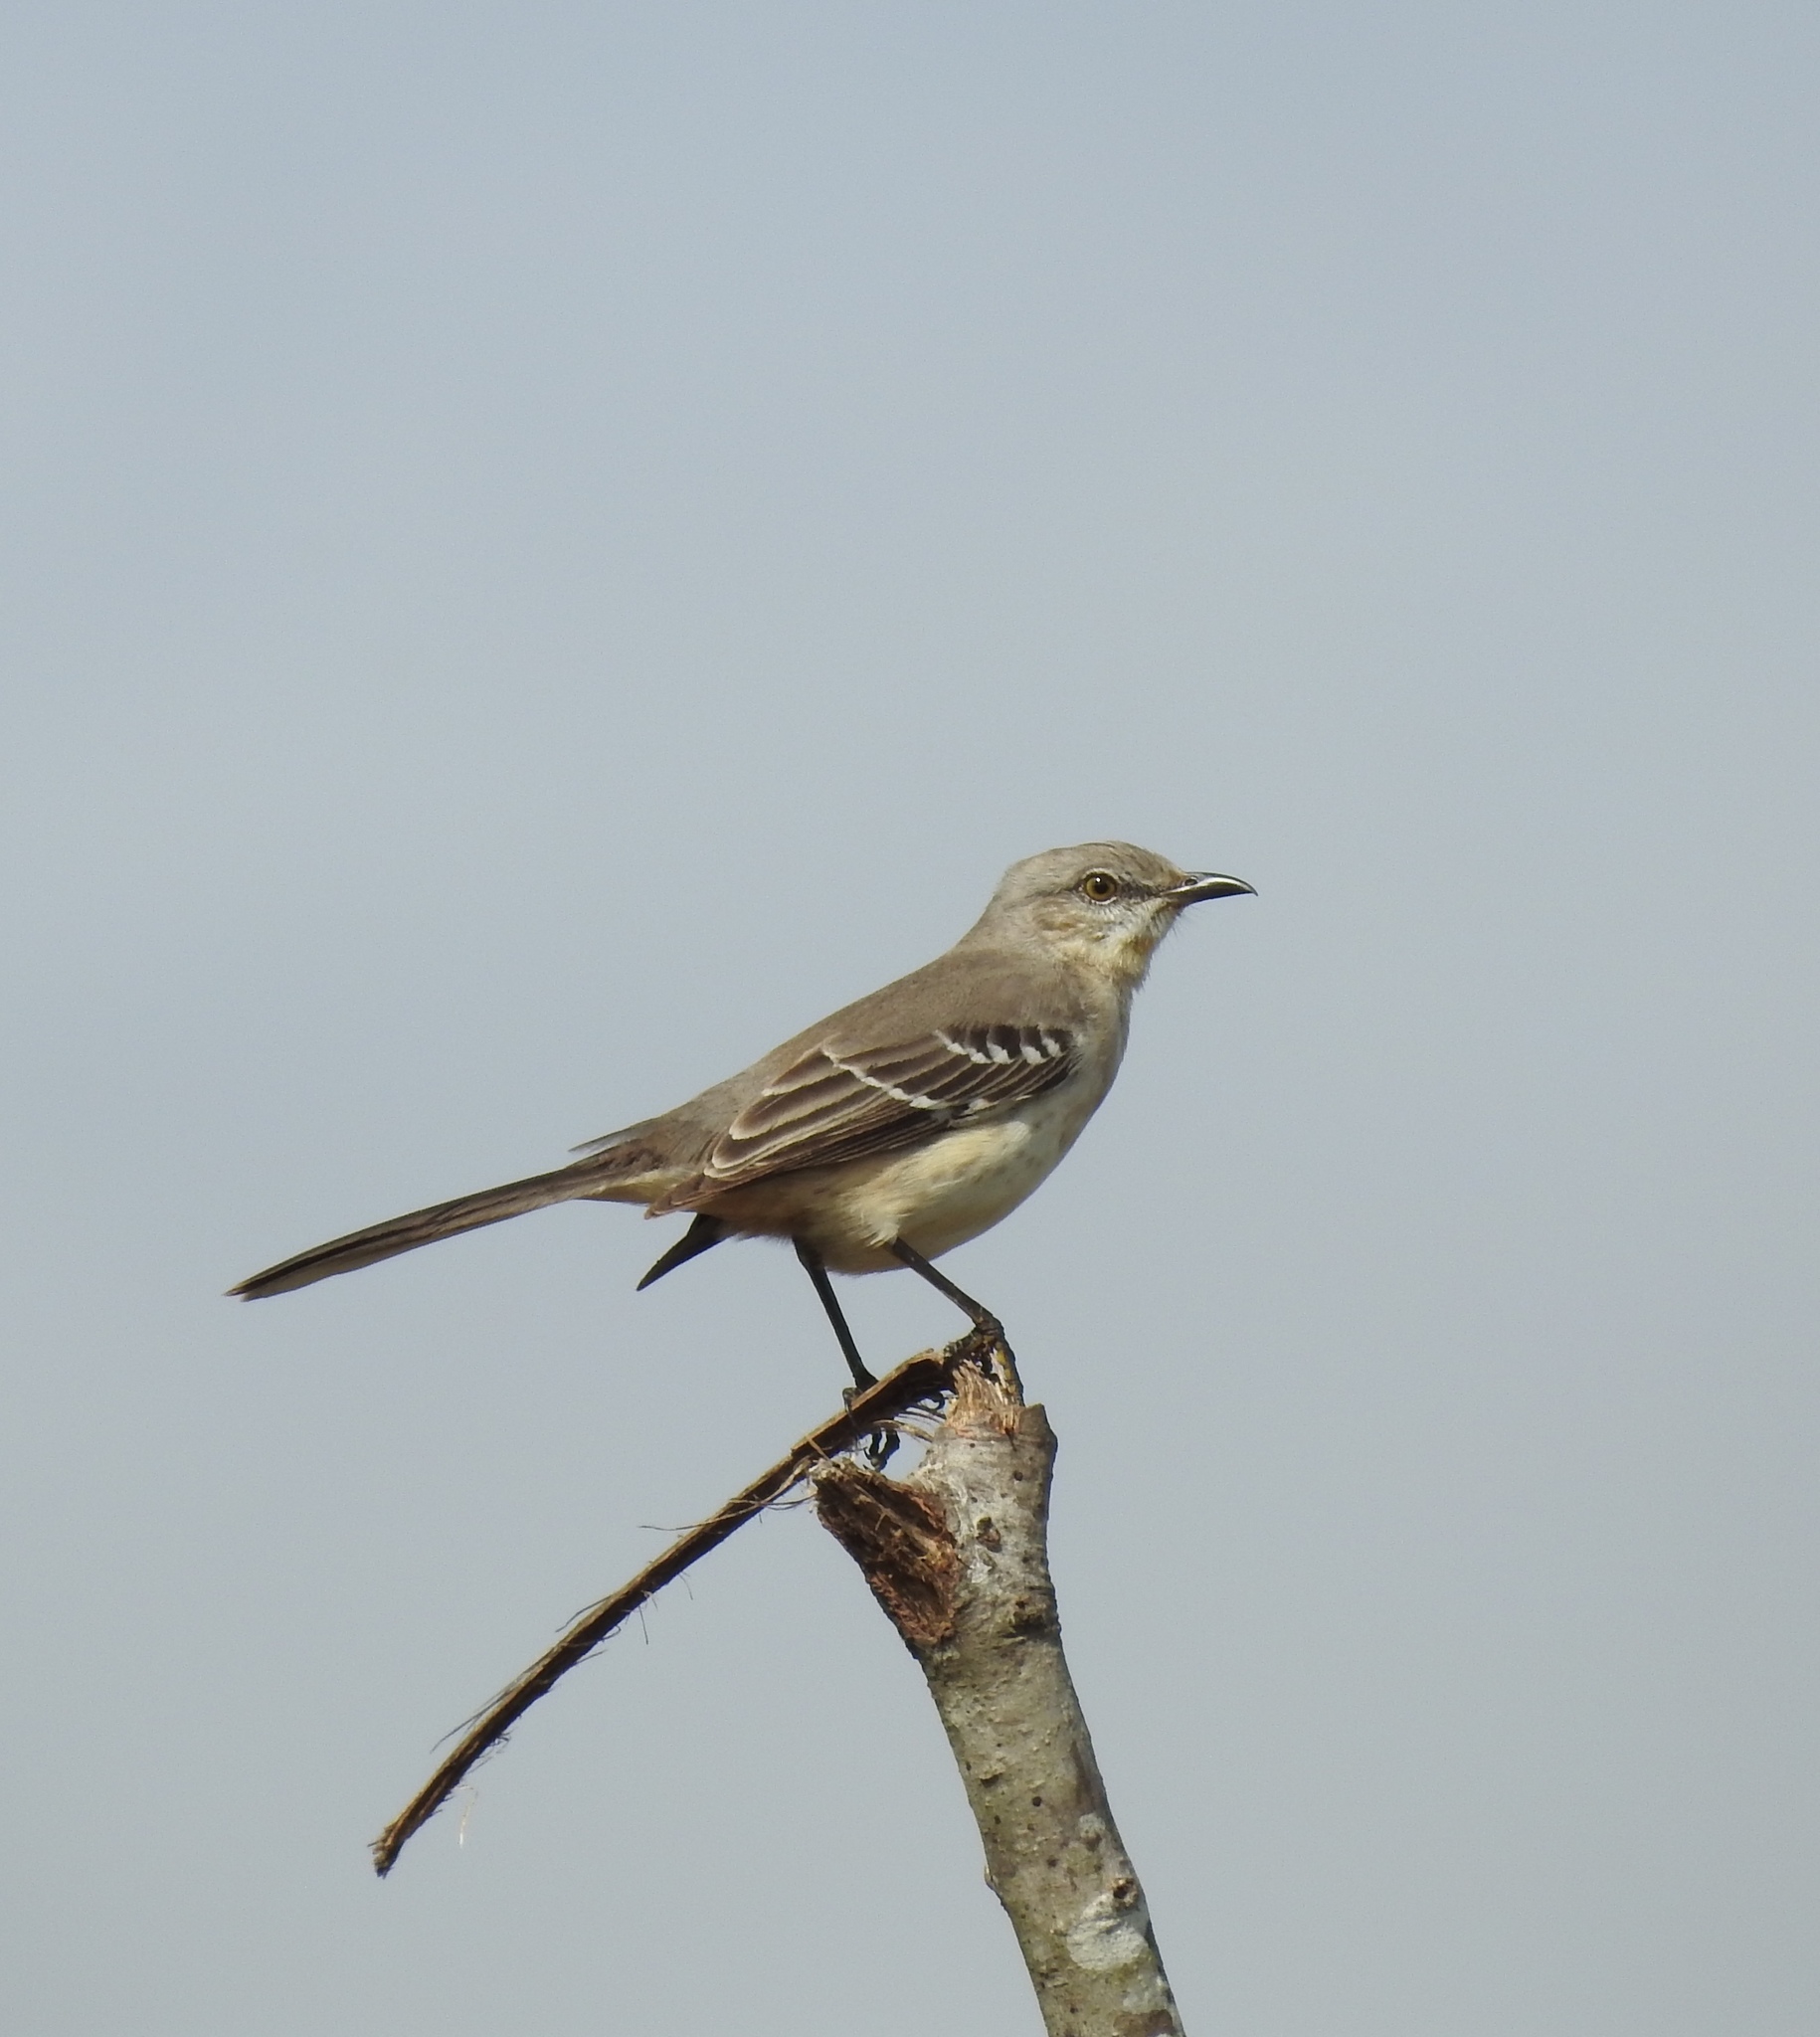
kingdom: Animalia
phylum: Chordata
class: Aves
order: Passeriformes
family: Mimidae
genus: Mimus
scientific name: Mimus polyglottos
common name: Northern mockingbird
